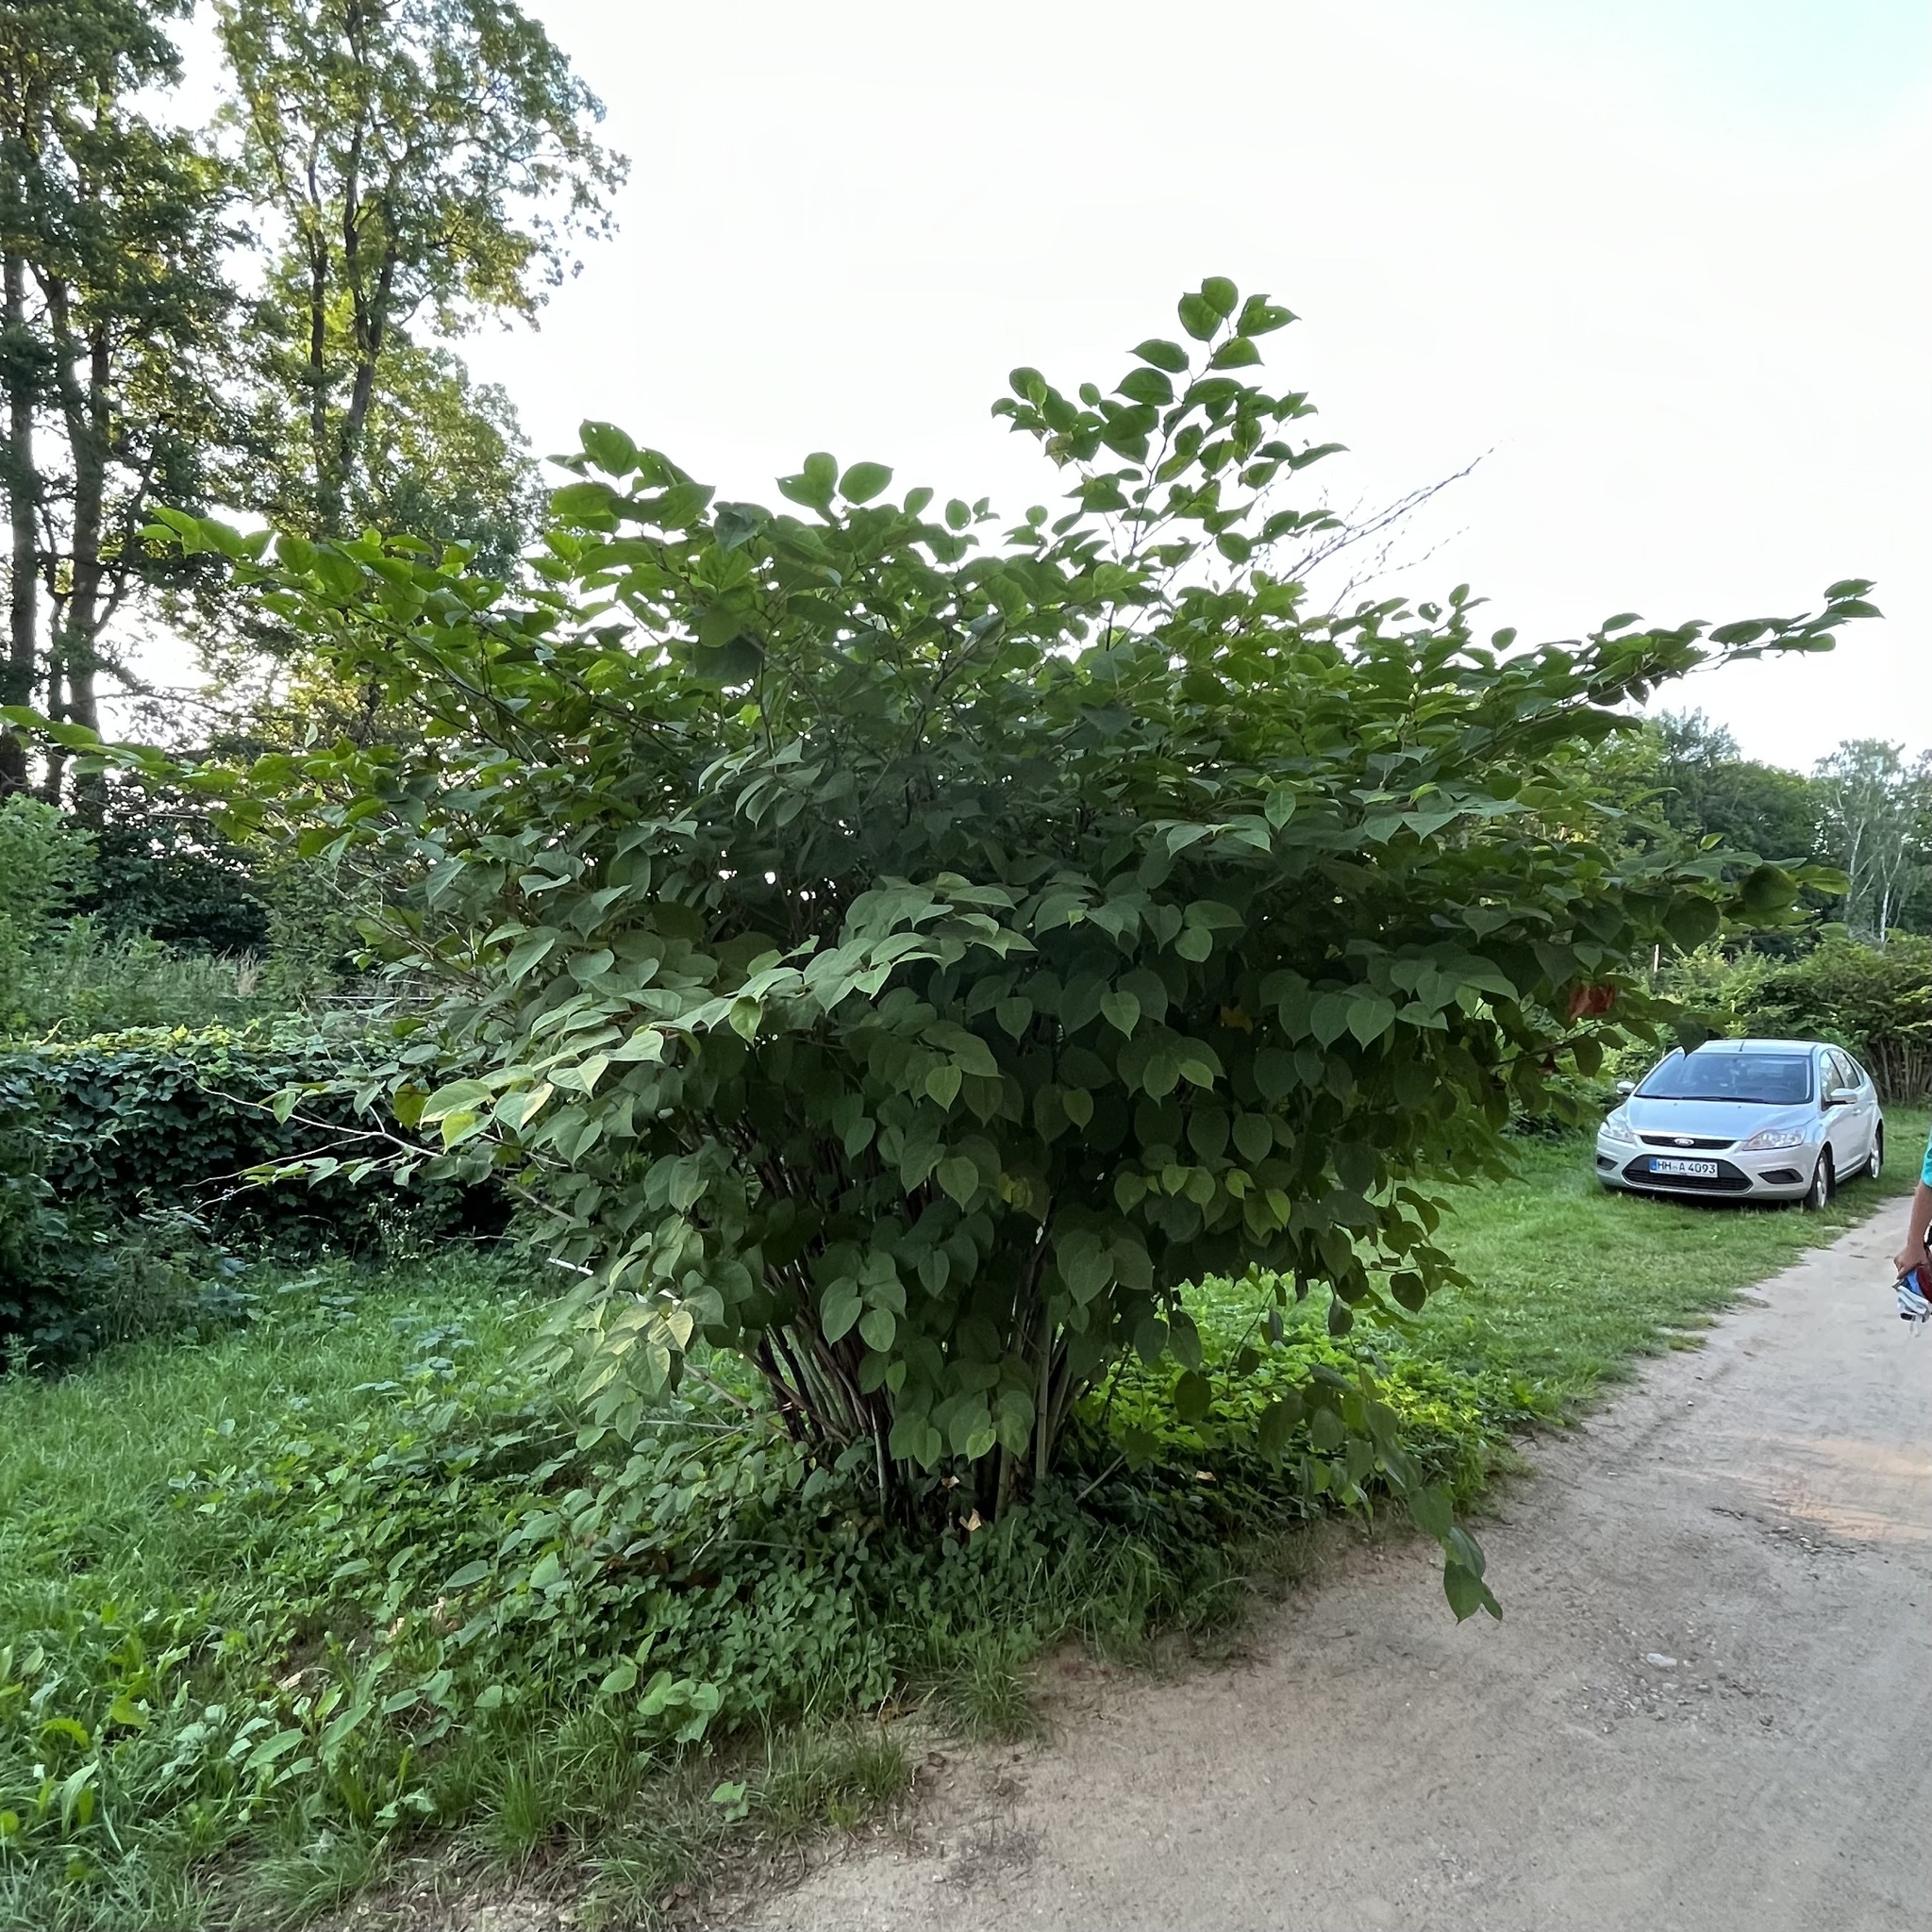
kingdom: Plantae
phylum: Tracheophyta
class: Magnoliopsida
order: Caryophyllales
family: Polygonaceae
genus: Reynoutria
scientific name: Reynoutria japonica
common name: Japanese knotweed
